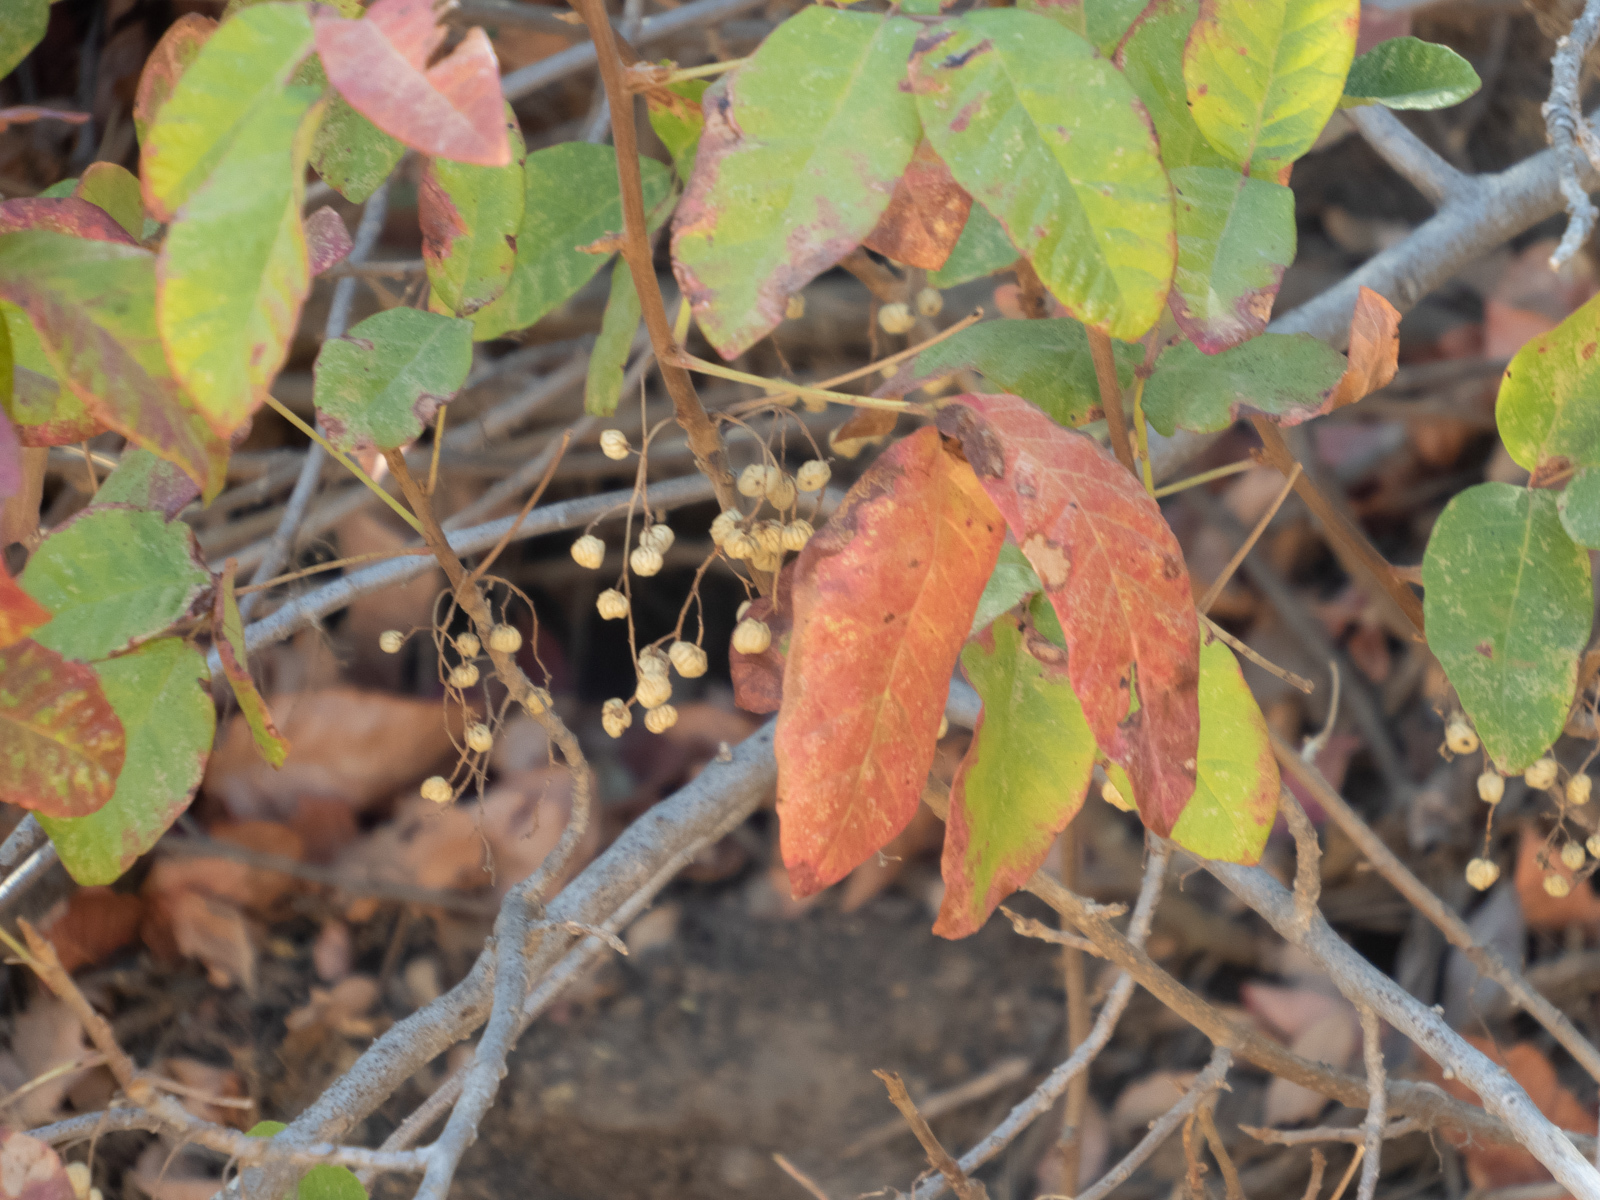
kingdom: Plantae
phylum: Tracheophyta
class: Magnoliopsida
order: Sapindales
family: Anacardiaceae
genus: Toxicodendron
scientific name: Toxicodendron diversilobum
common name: Pacific poison-oak
